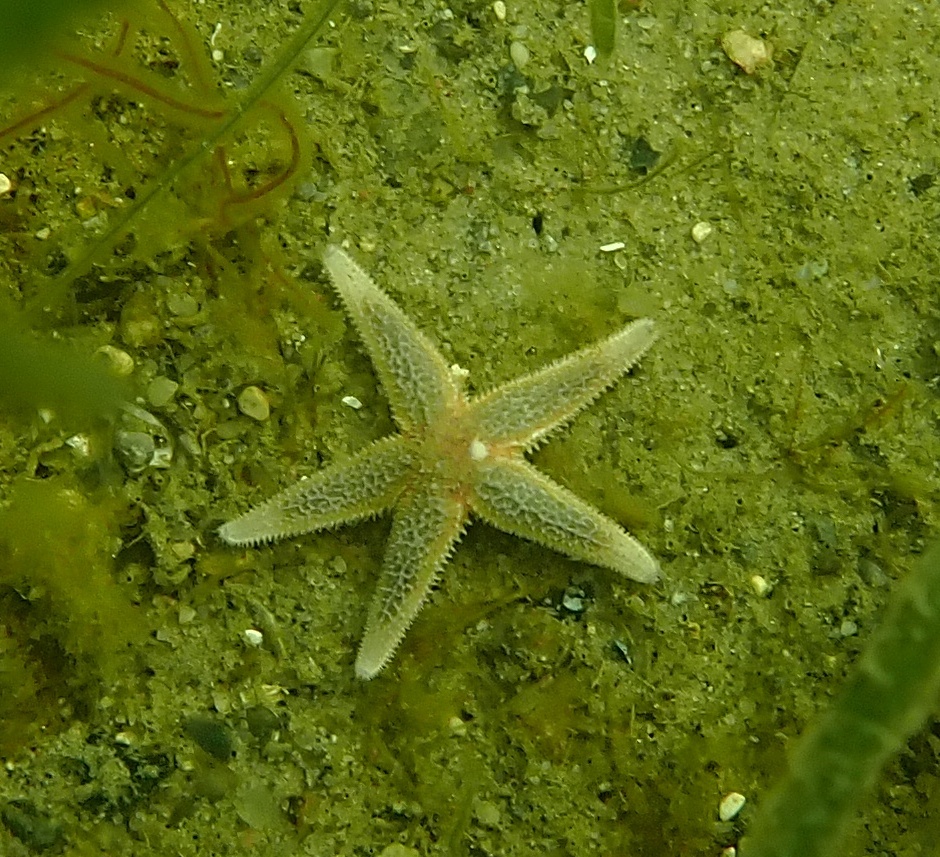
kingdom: Animalia
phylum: Echinodermata
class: Asteroidea
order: Forcipulatida
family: Asteriidae
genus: Asterias
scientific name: Asterias rubens
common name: Common starfish
